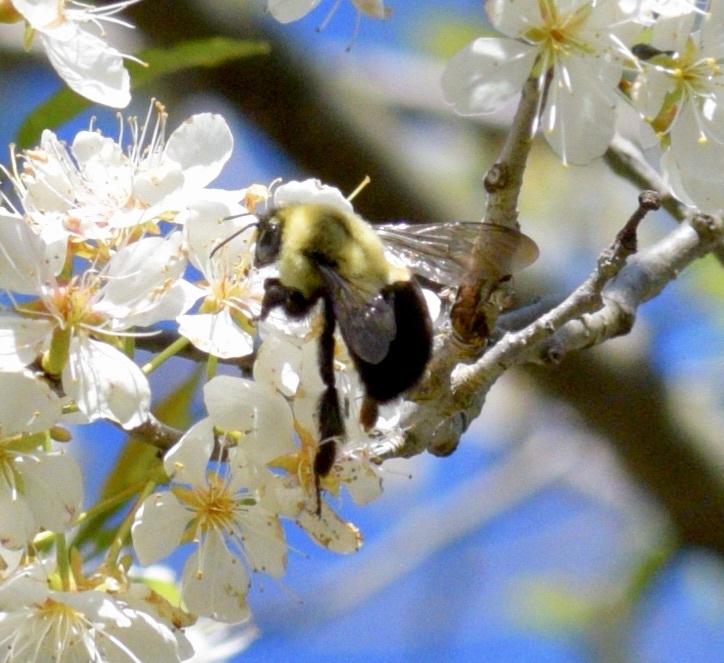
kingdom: Animalia
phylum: Arthropoda
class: Insecta
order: Hymenoptera
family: Apidae
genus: Bombus
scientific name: Bombus impatiens
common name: Common eastern bumble bee
